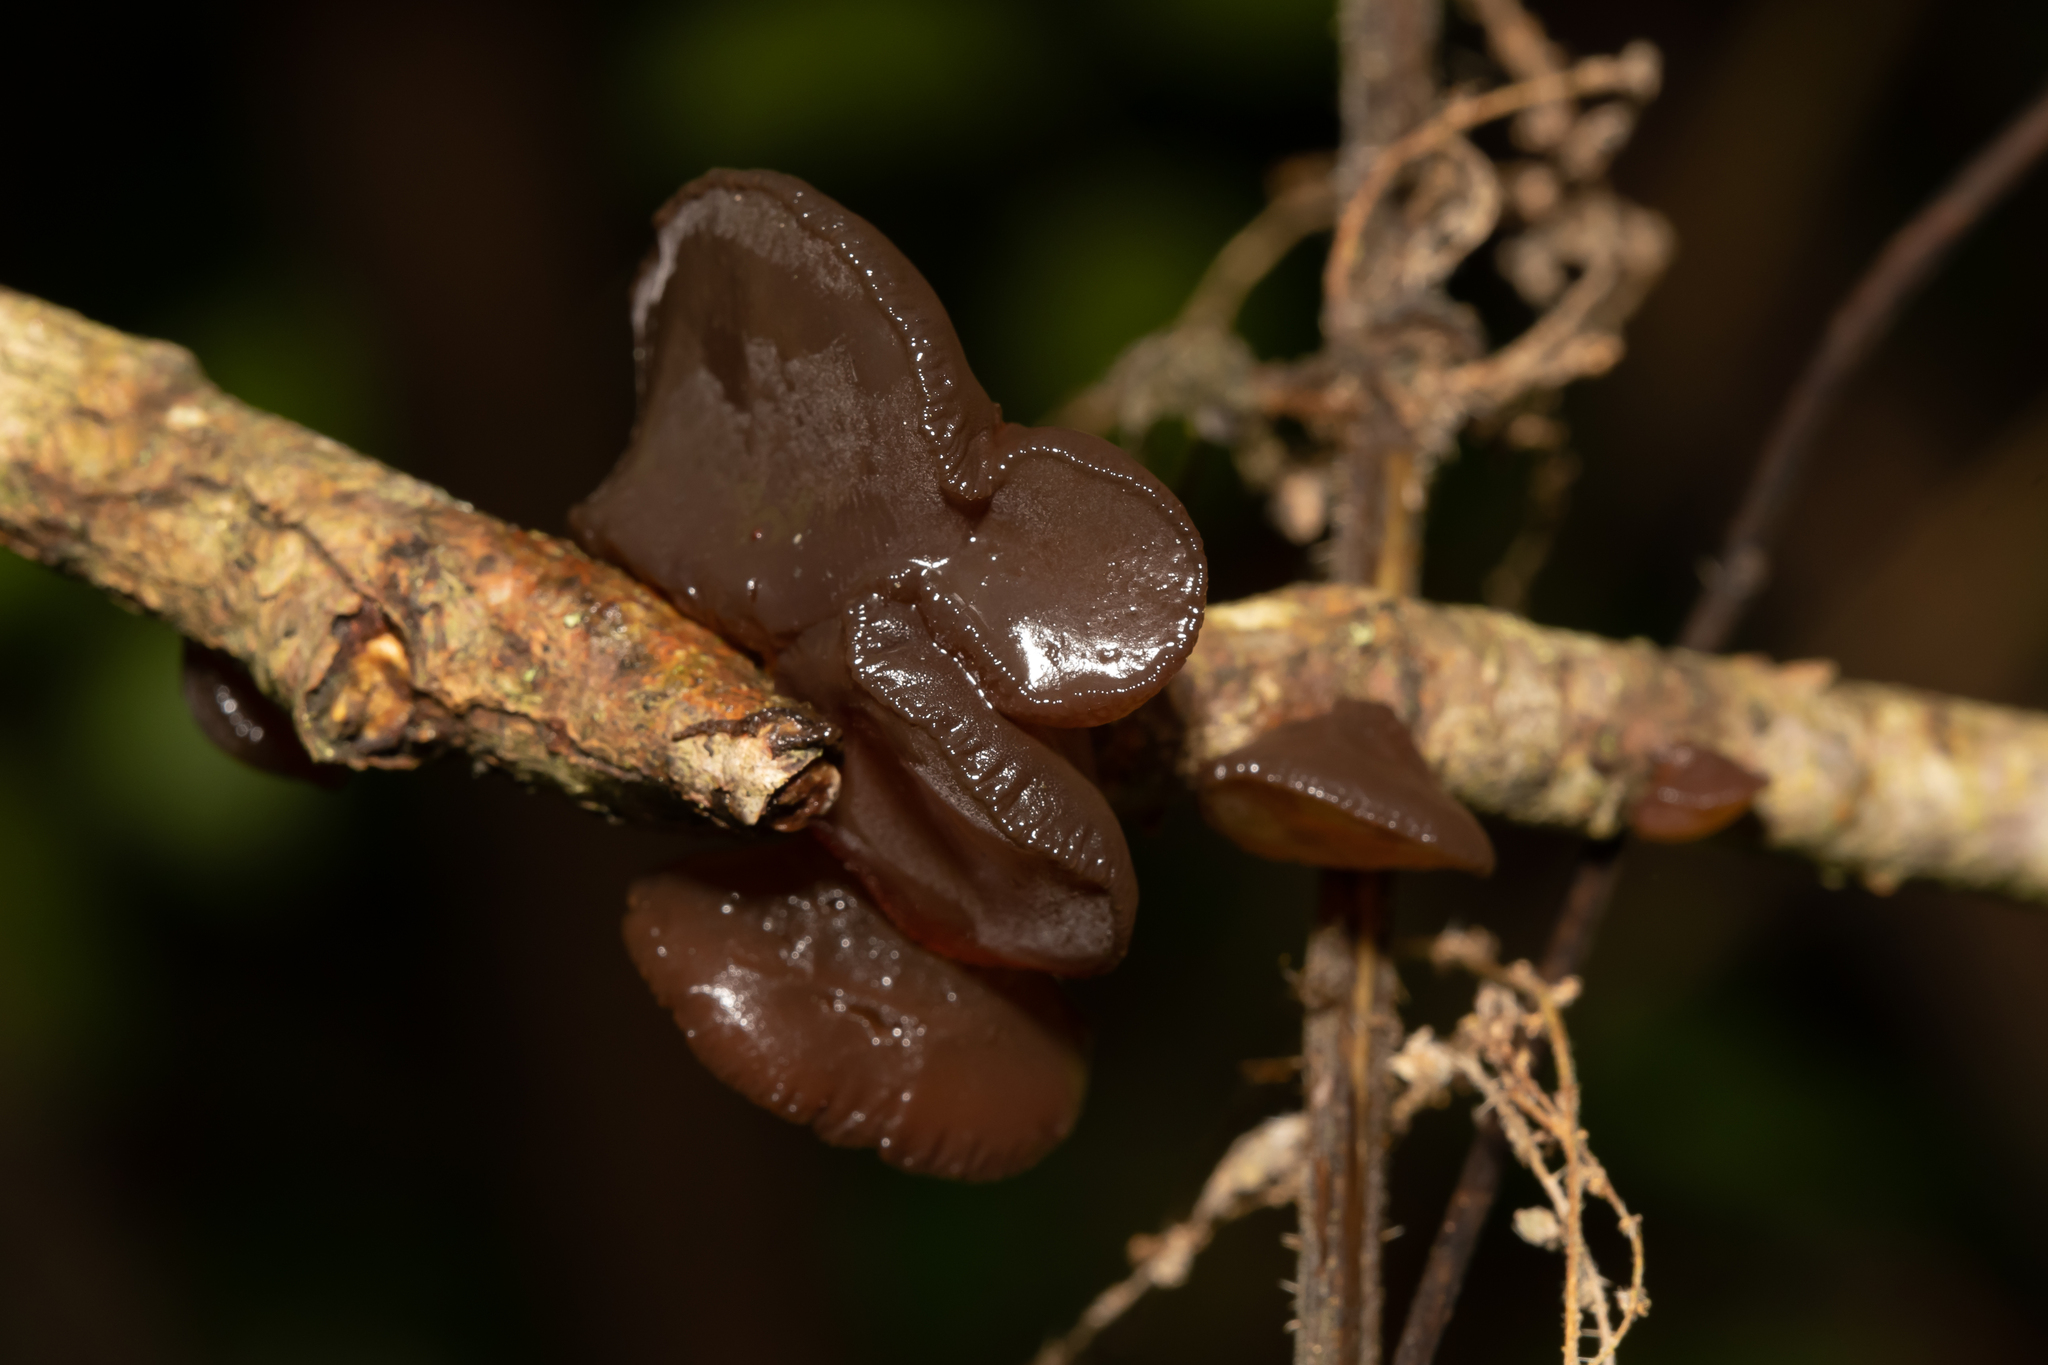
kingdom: Fungi
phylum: Basidiomycota
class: Agaricomycetes
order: Auriculariales
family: Auriculariaceae
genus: Exidia
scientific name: Exidia recisa
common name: Amber jelly
